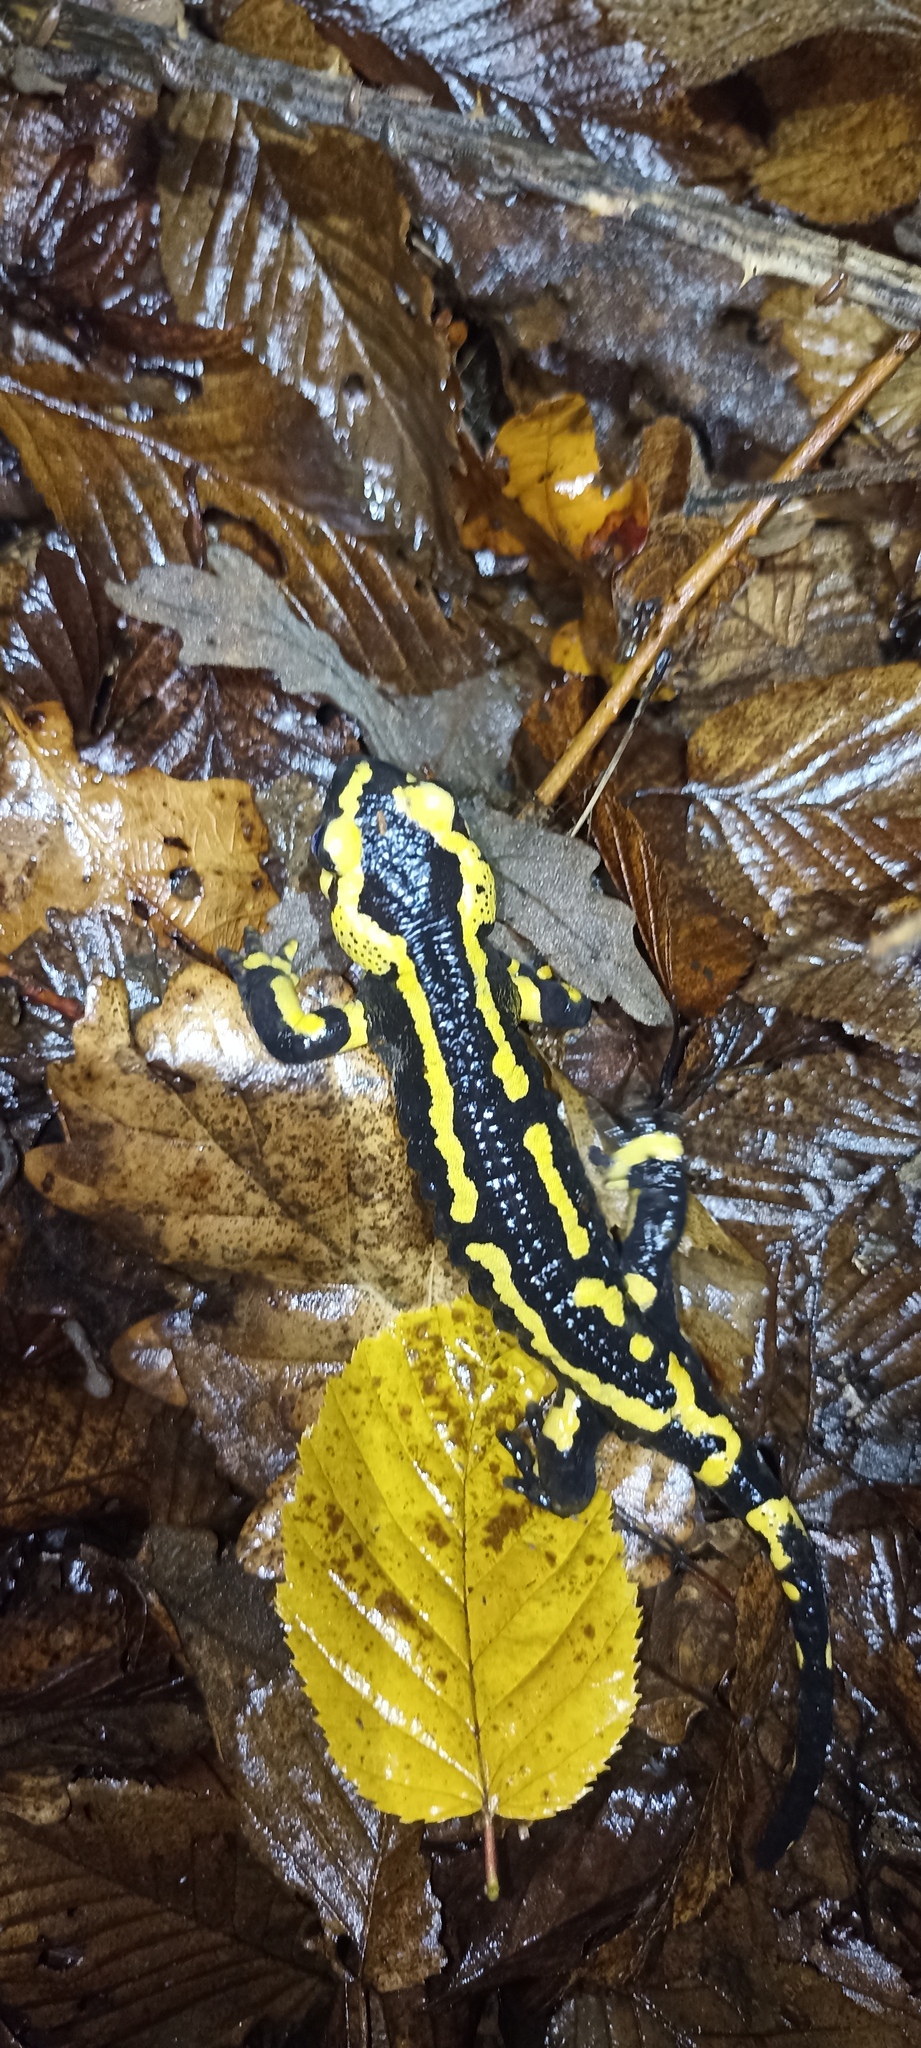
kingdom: Animalia
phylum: Chordata
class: Amphibia
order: Caudata
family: Salamandridae
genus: Salamandra
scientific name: Salamandra salamandra
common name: Fire salamander
